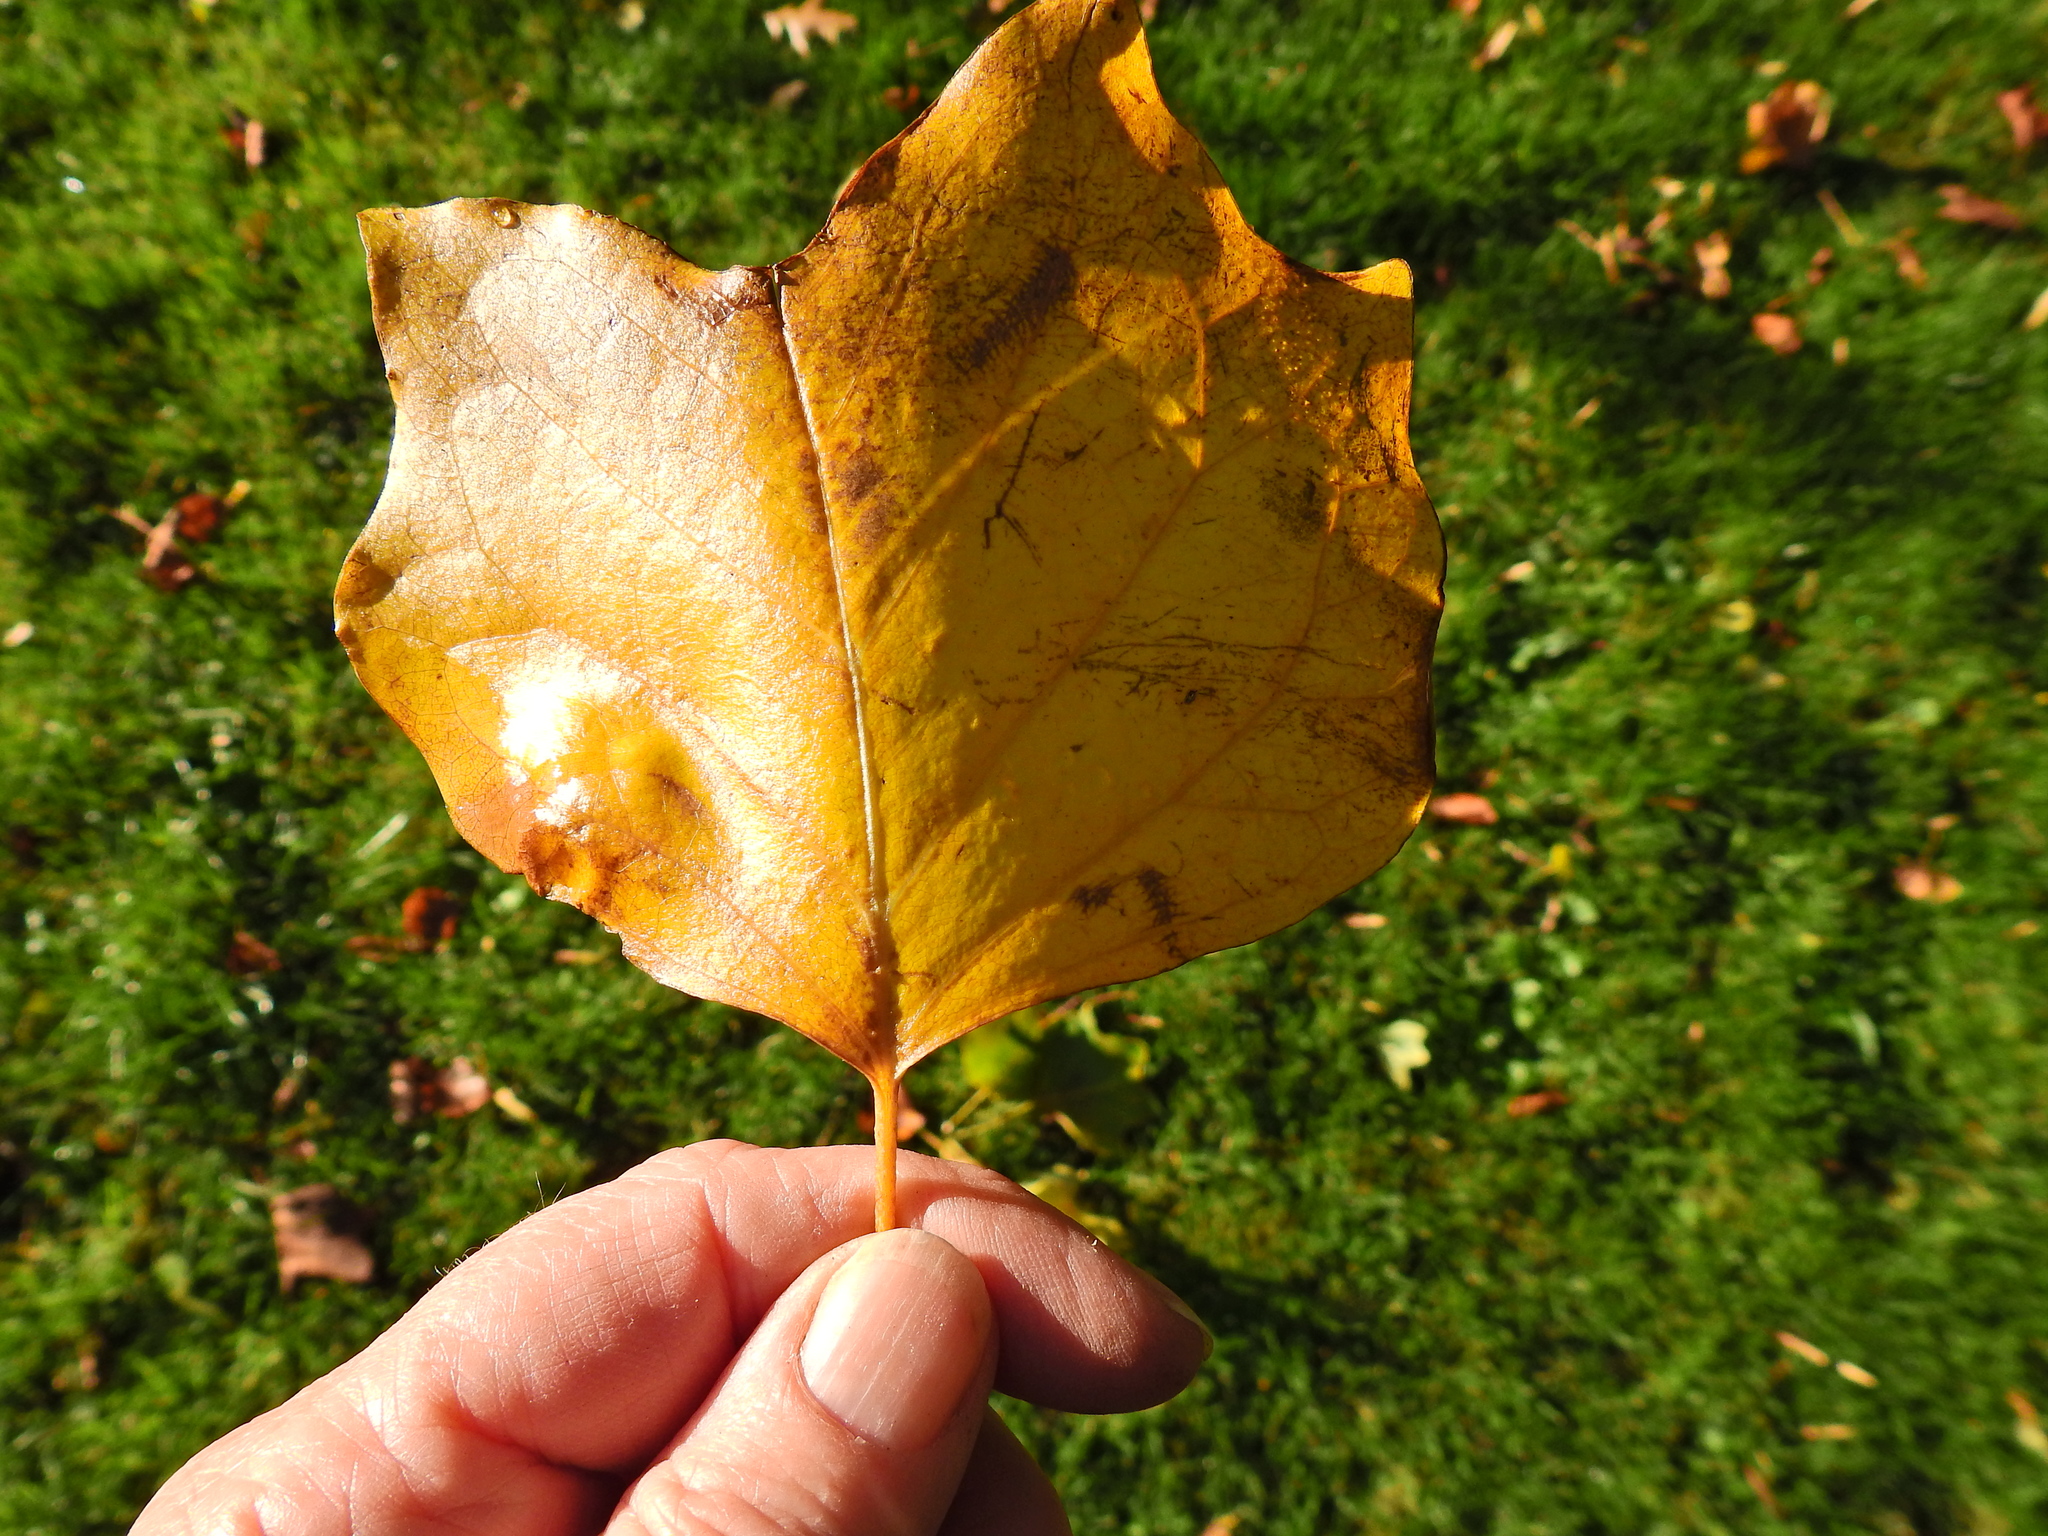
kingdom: Plantae
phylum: Tracheophyta
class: Magnoliopsida
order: Magnoliales
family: Magnoliaceae
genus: Liriodendron
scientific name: Liriodendron tulipifera
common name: Tulip tree
